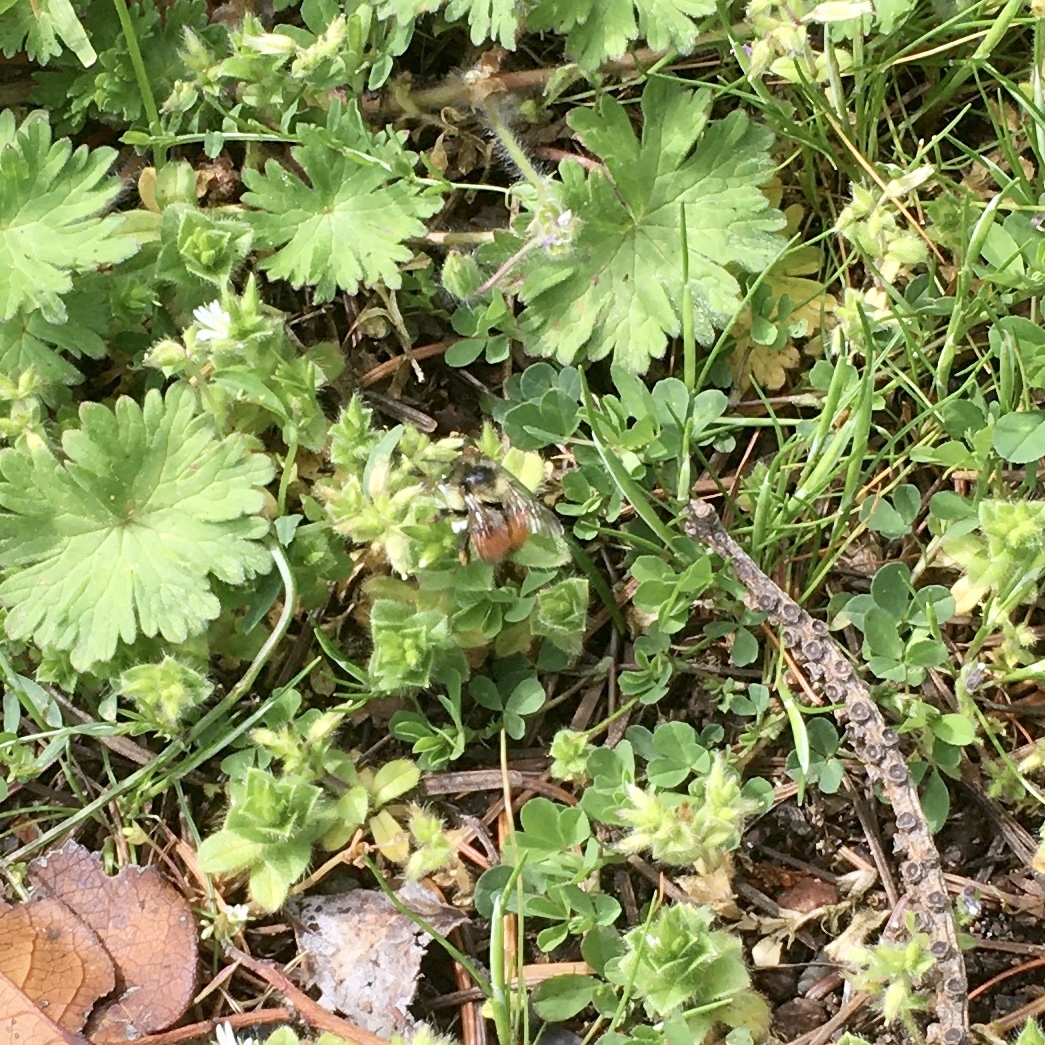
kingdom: Animalia
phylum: Arthropoda
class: Insecta
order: Hymenoptera
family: Apidae
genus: Bombus
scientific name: Bombus melanopygus
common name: Black tail bumble bee
